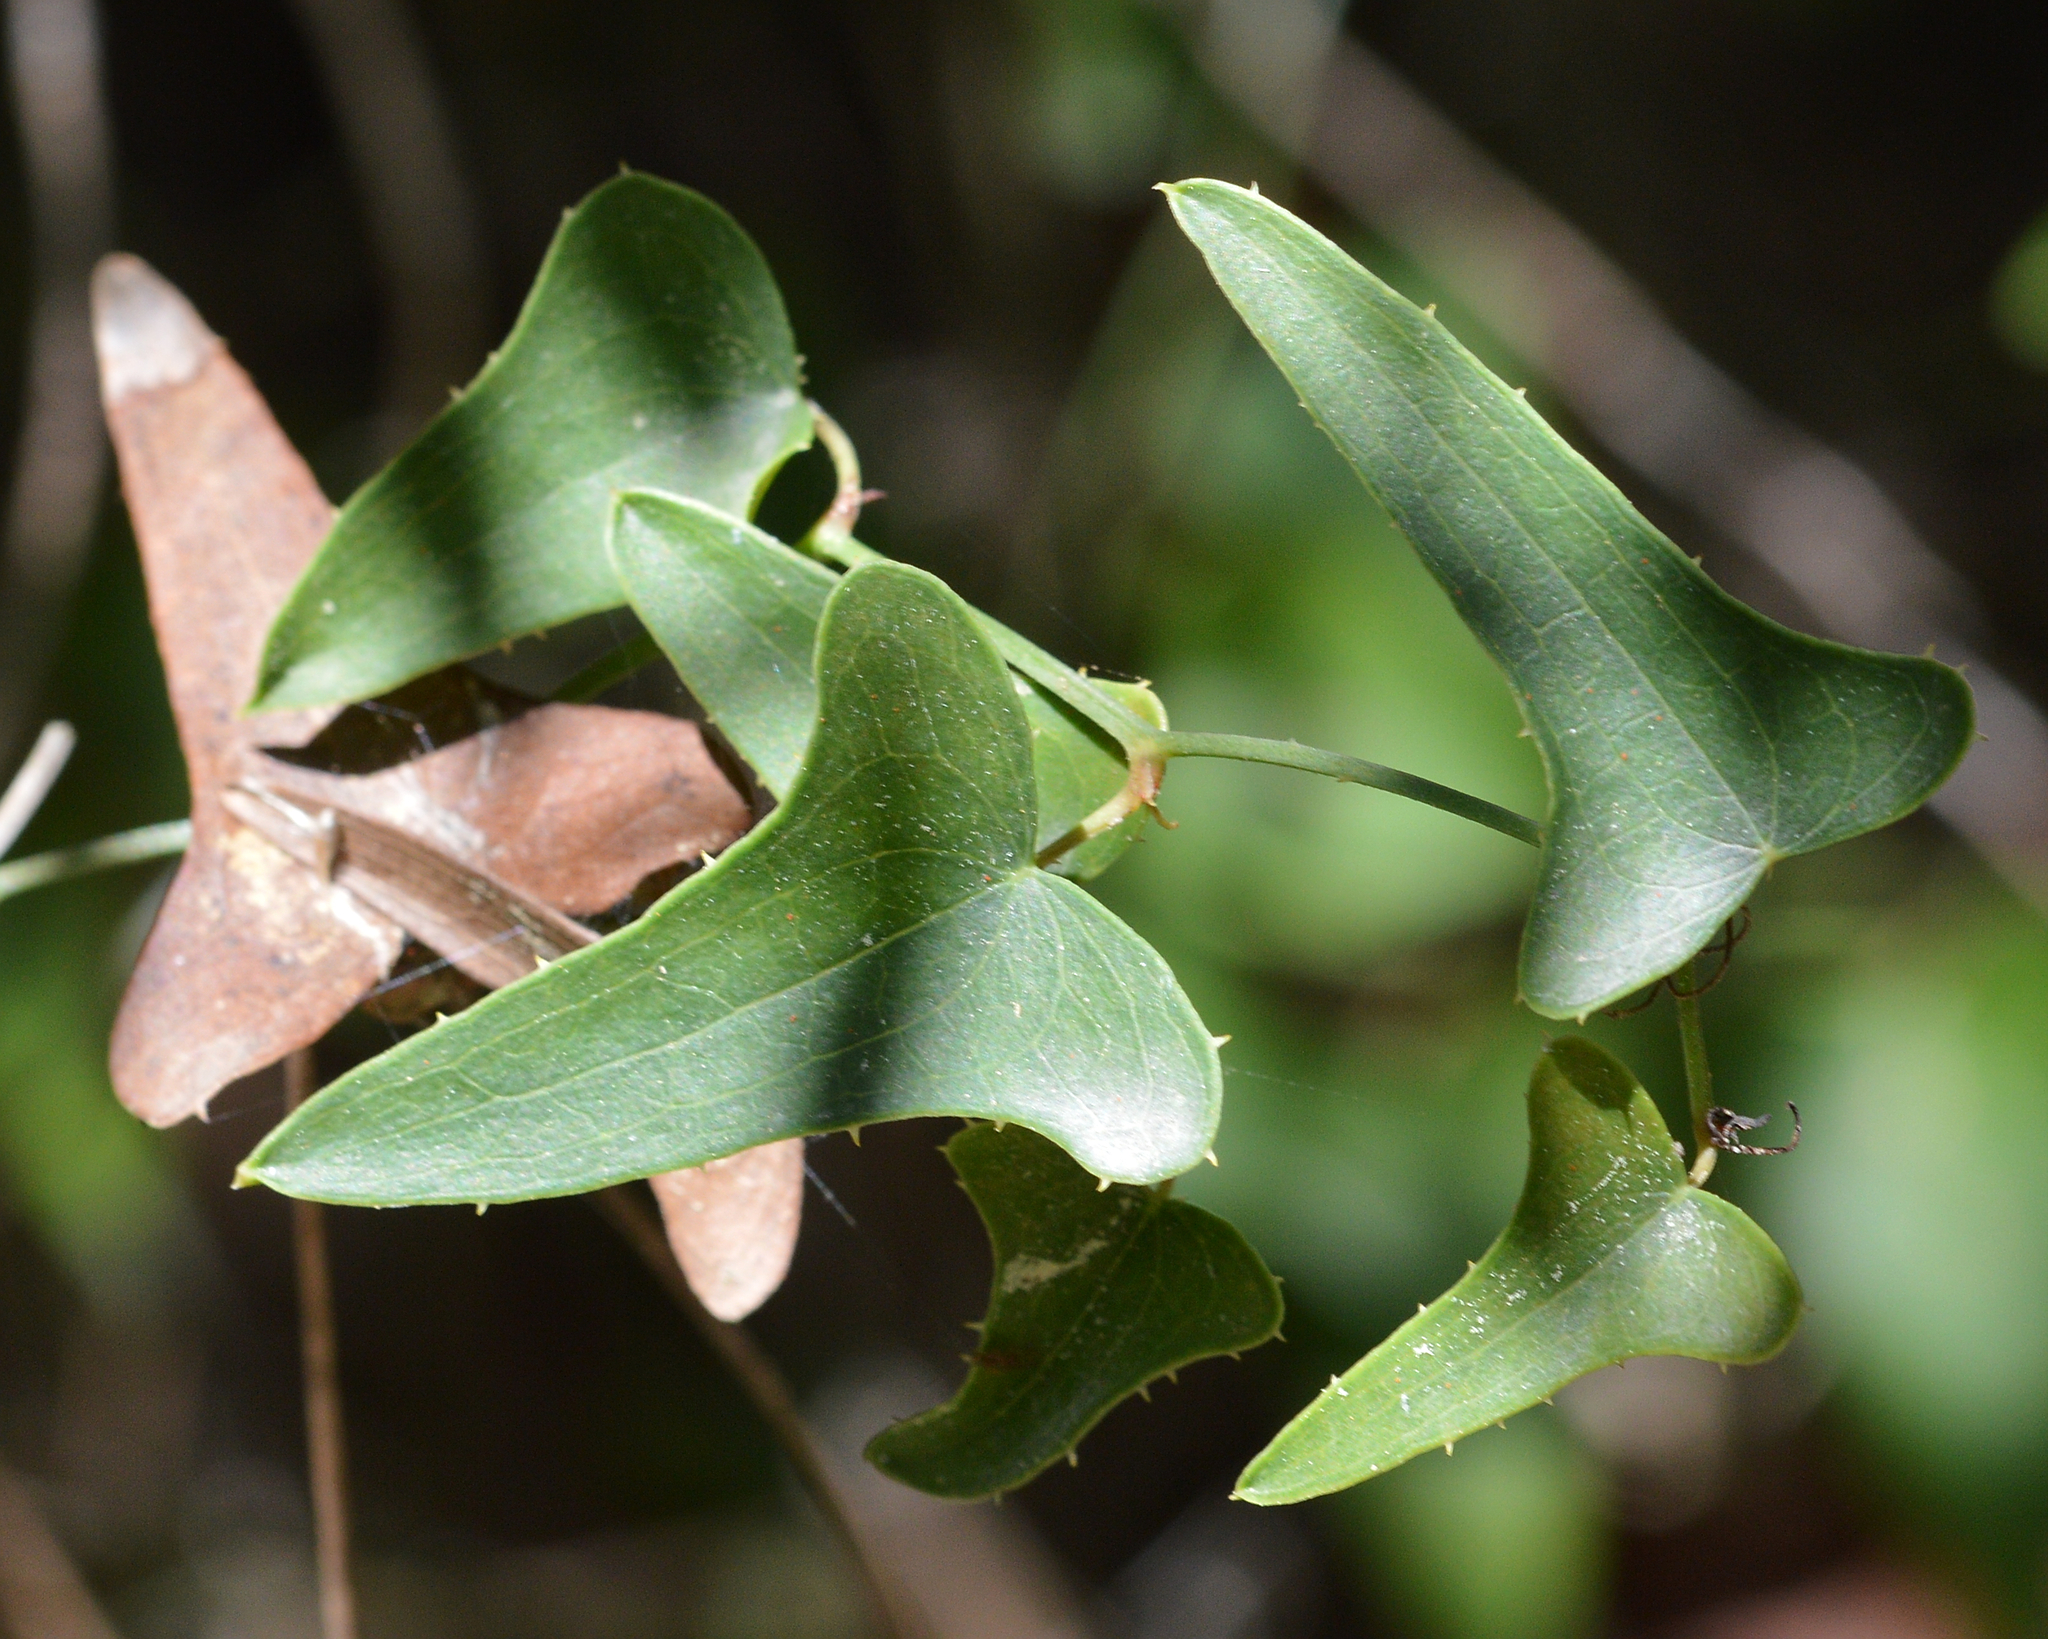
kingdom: Plantae
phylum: Tracheophyta
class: Liliopsida
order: Liliales
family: Smilacaceae
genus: Smilax
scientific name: Smilax aspera
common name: Common smilax
